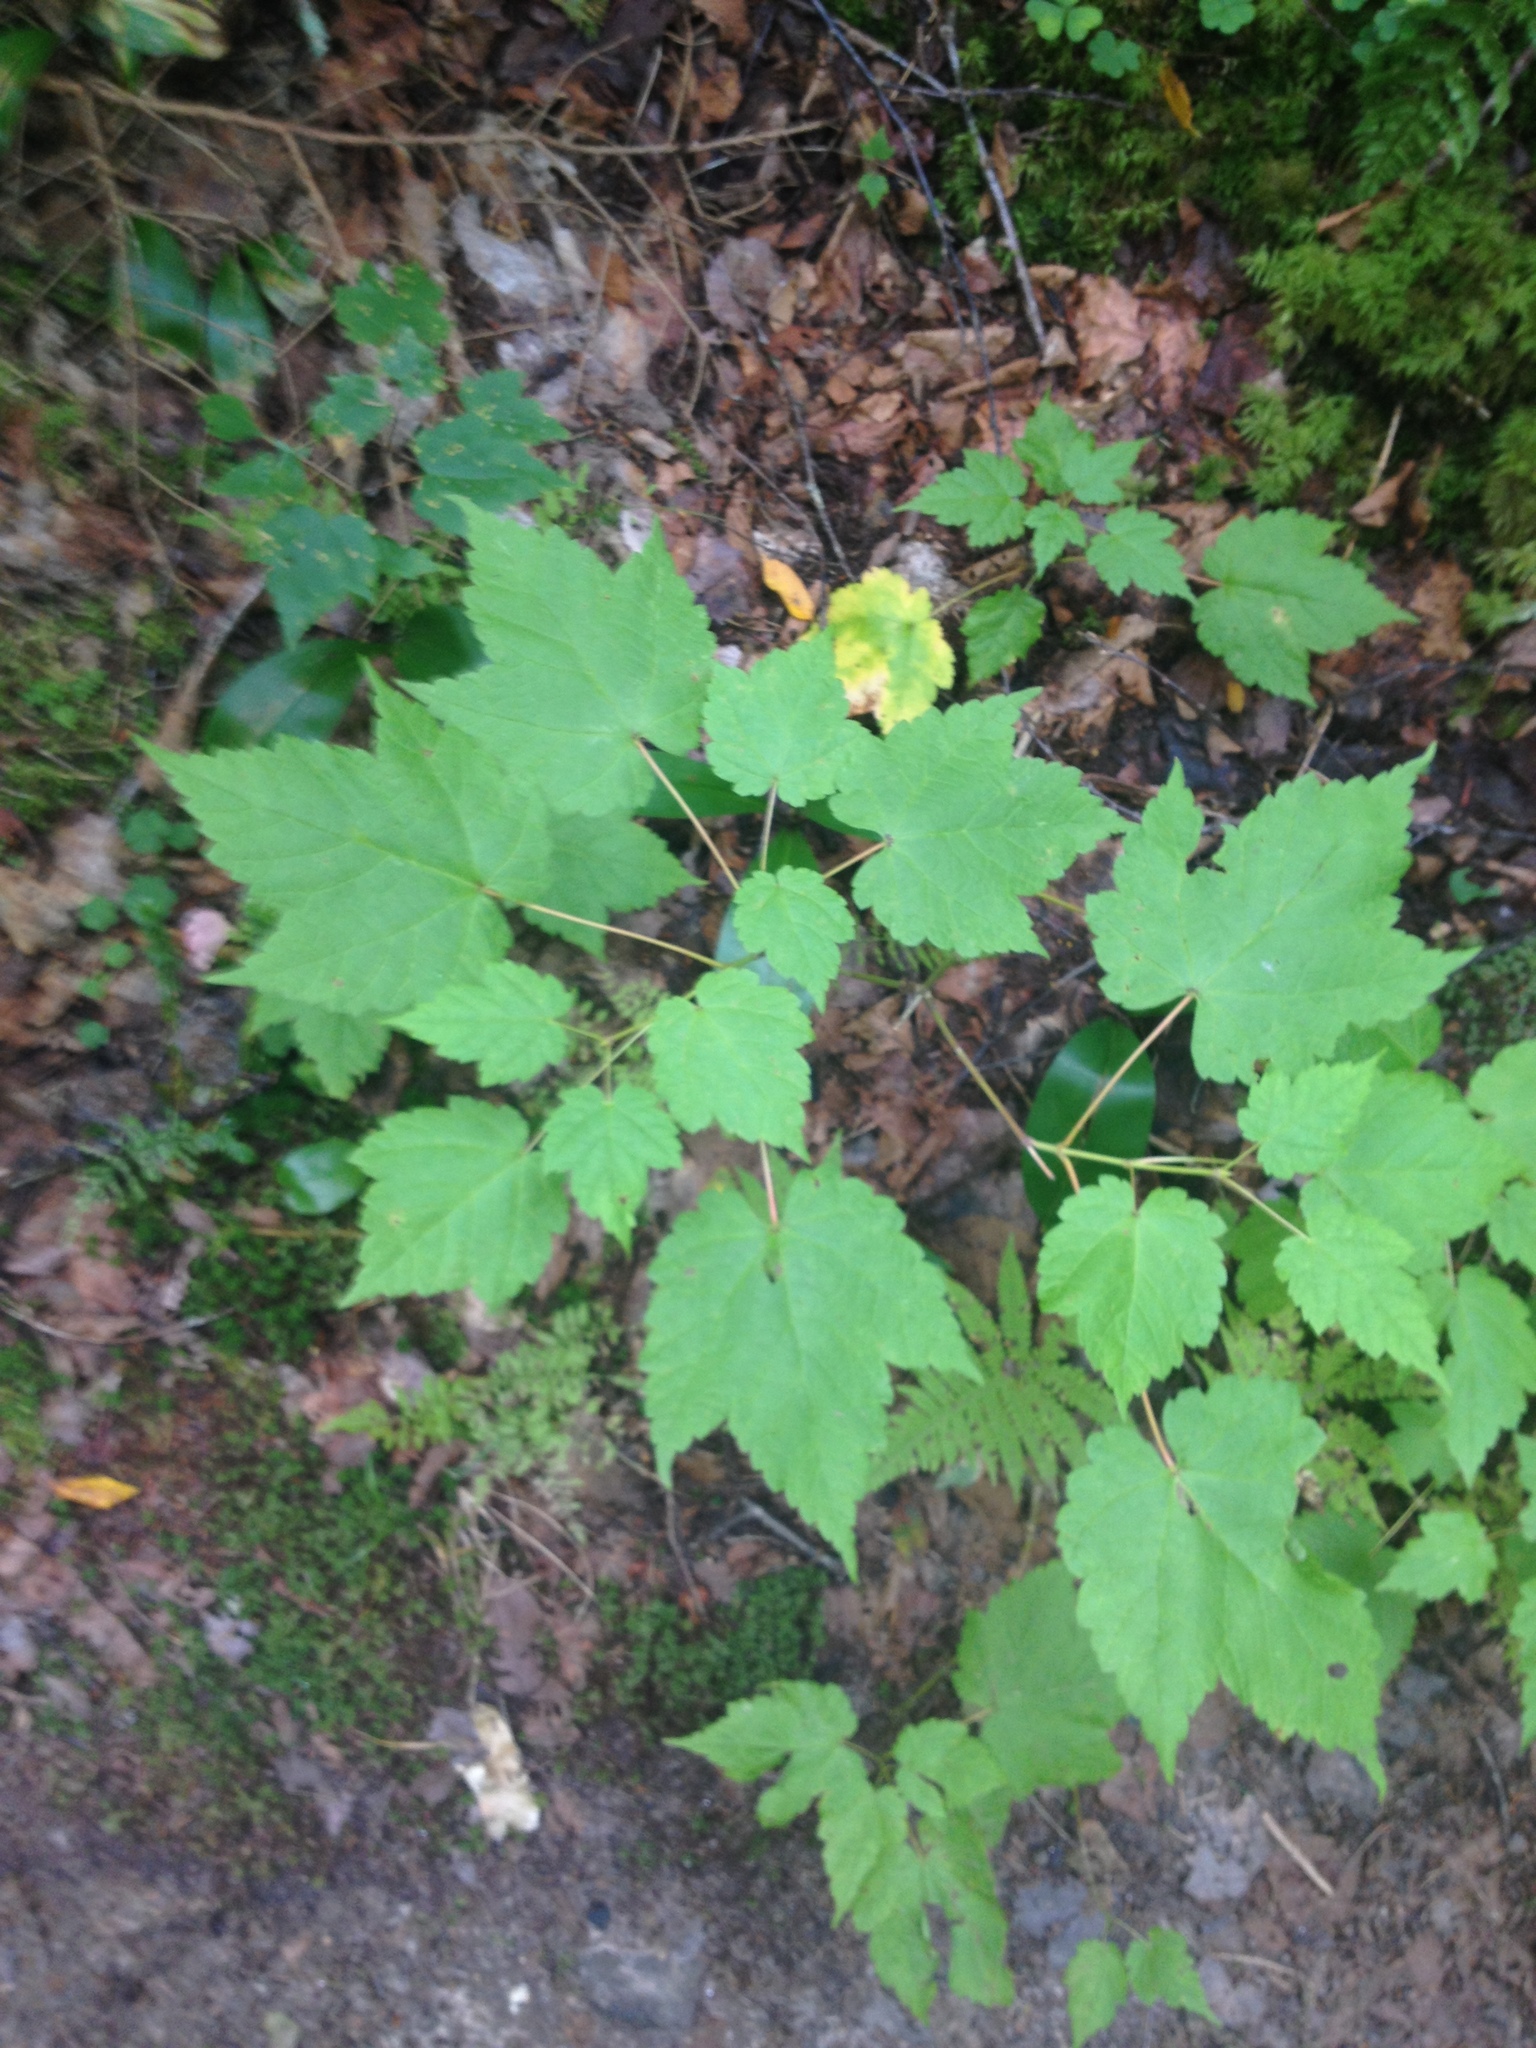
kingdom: Plantae
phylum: Tracheophyta
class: Magnoliopsida
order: Sapindales
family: Sapindaceae
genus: Acer
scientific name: Acer spicatum
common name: Mountain maple
